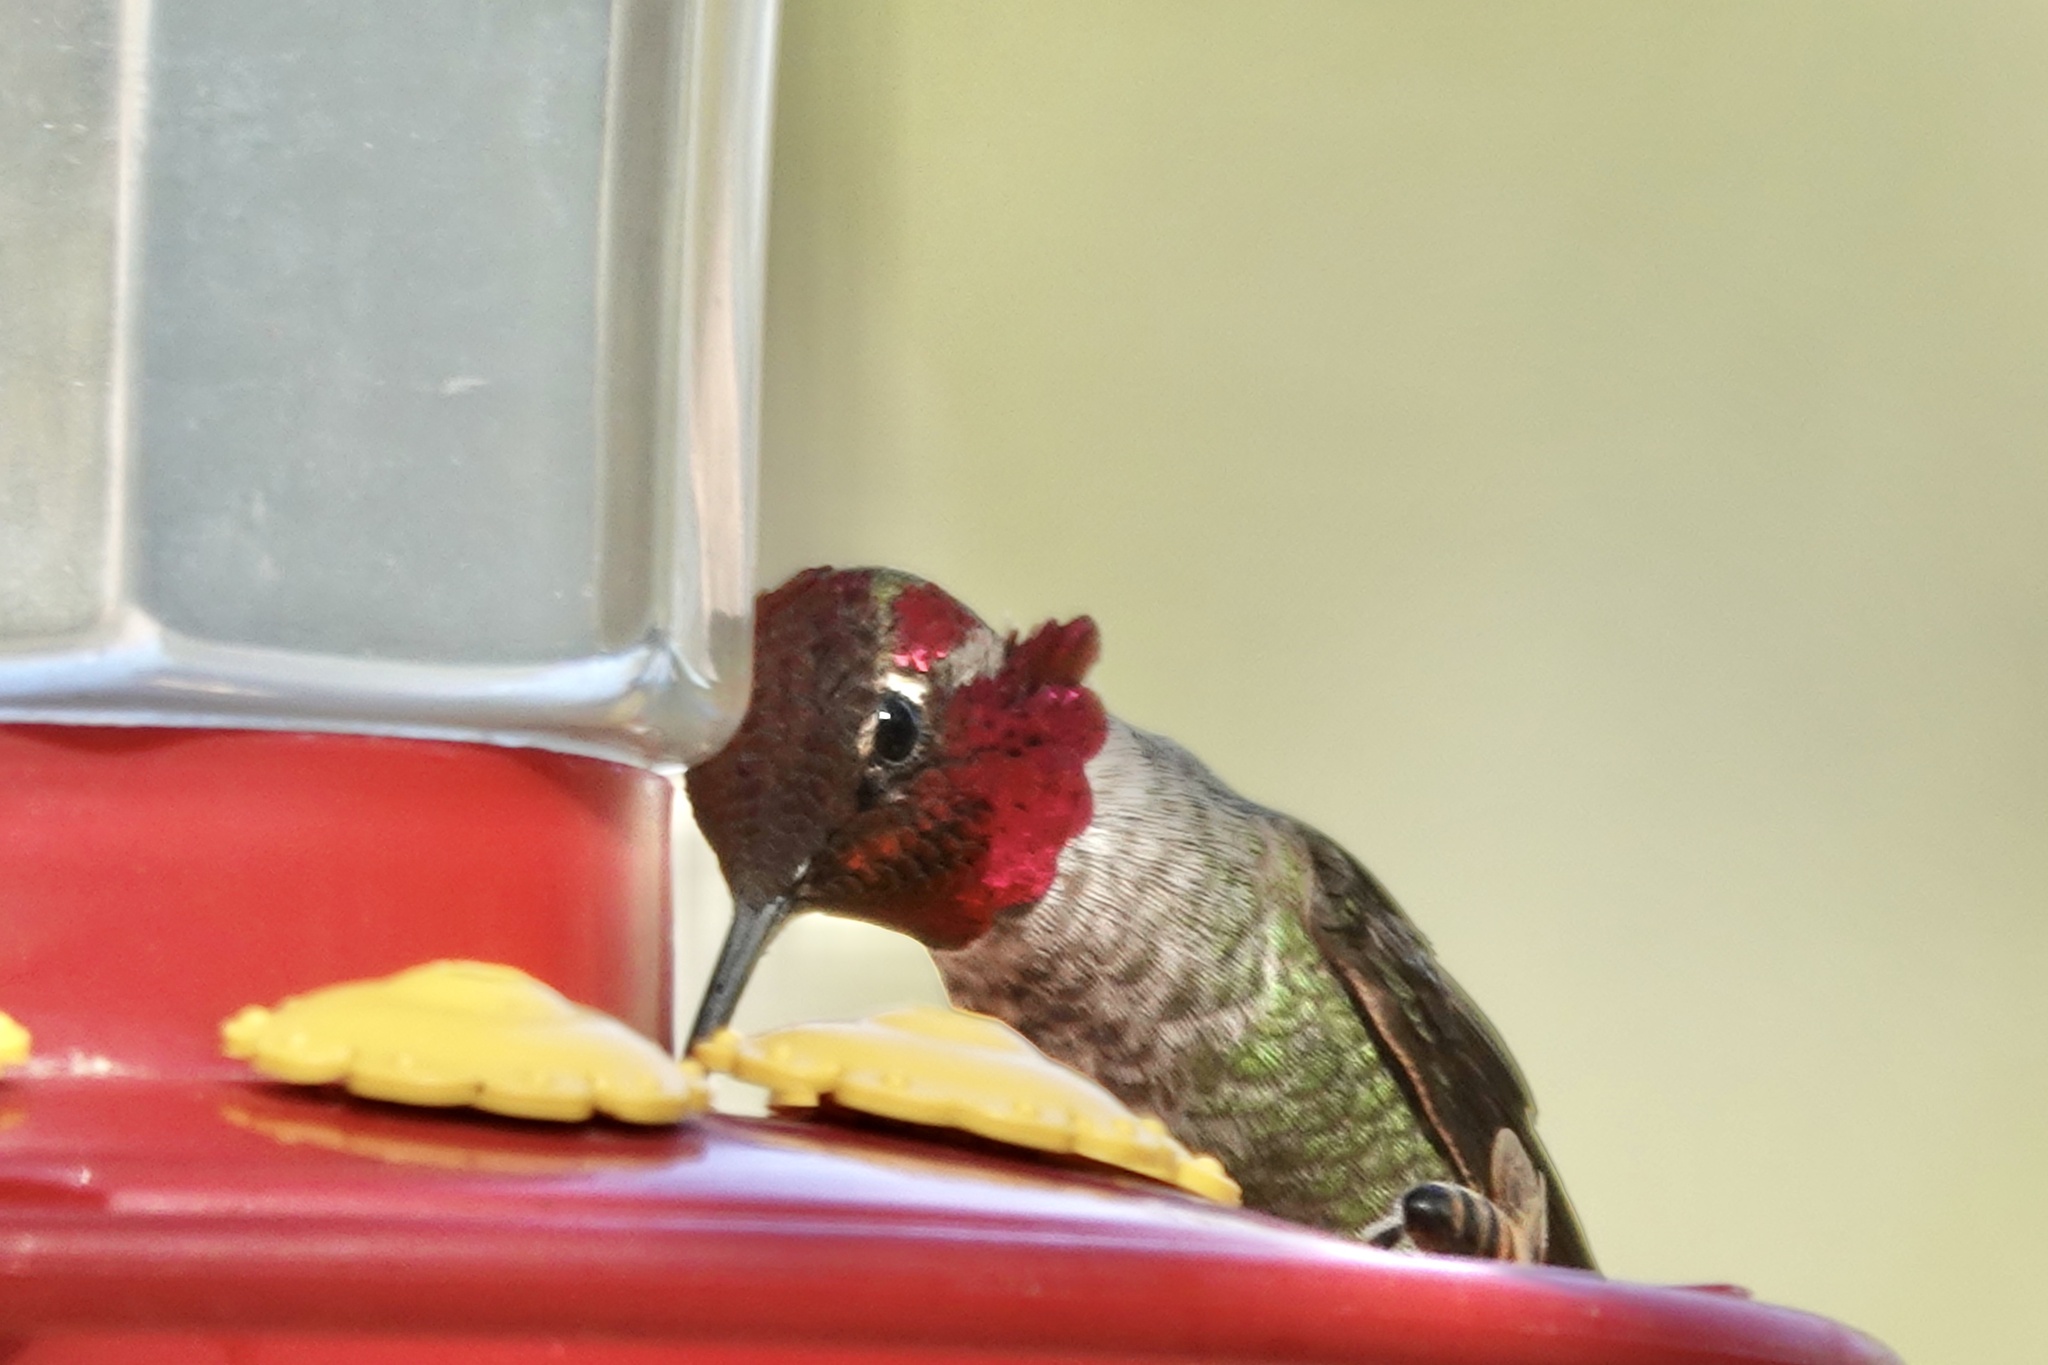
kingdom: Animalia
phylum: Chordata
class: Aves
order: Apodiformes
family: Trochilidae
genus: Calypte
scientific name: Calypte anna
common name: Anna's hummingbird
